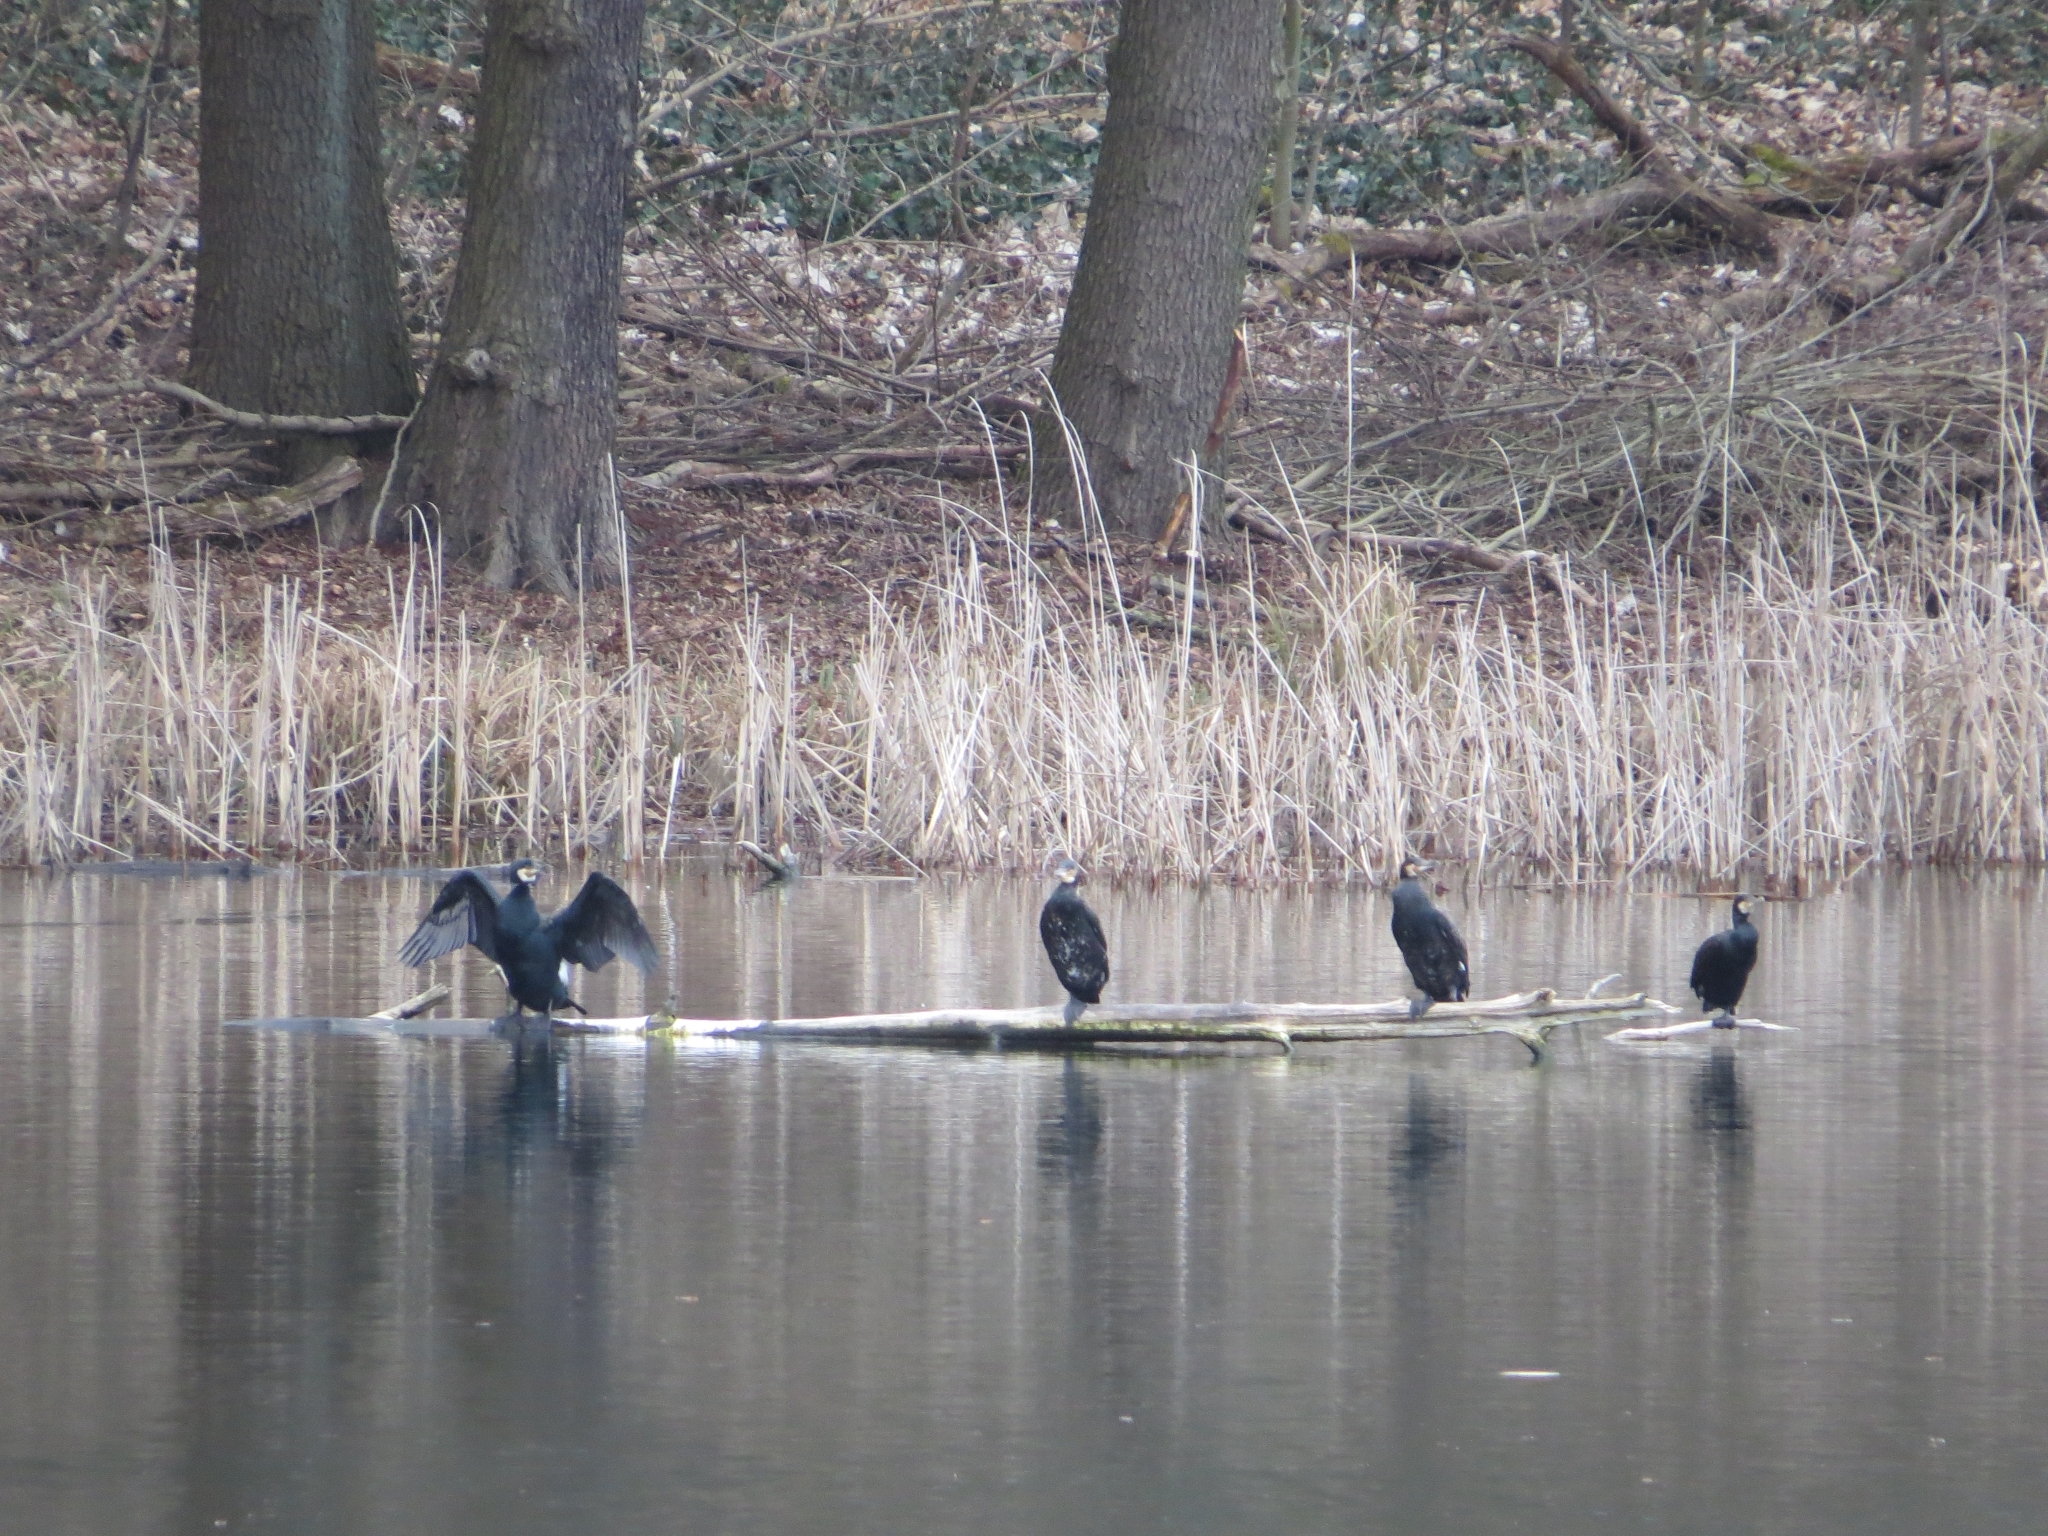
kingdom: Animalia
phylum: Chordata
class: Aves
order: Suliformes
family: Phalacrocoracidae
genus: Phalacrocorax
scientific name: Phalacrocorax carbo
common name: Great cormorant
